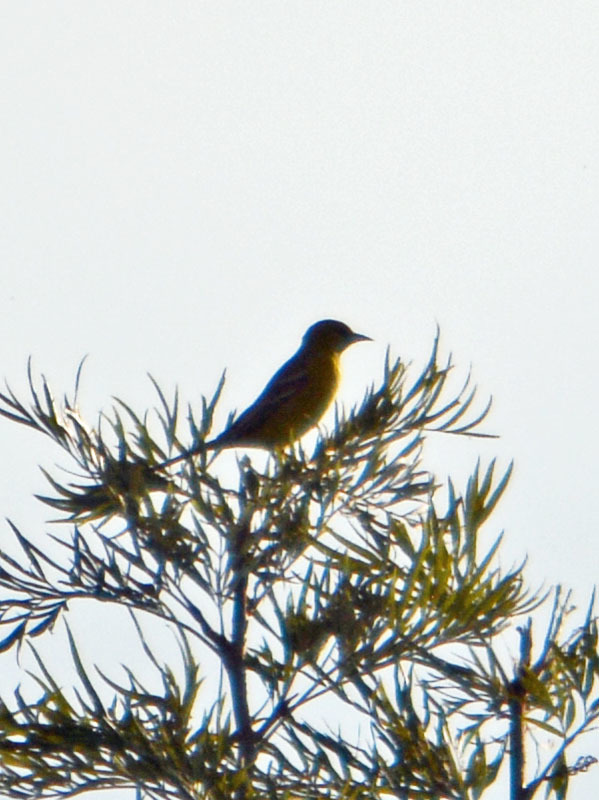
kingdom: Animalia
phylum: Chordata
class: Aves
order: Passeriformes
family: Icteridae
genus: Icterus
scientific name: Icterus cucullatus
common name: Hooded oriole
